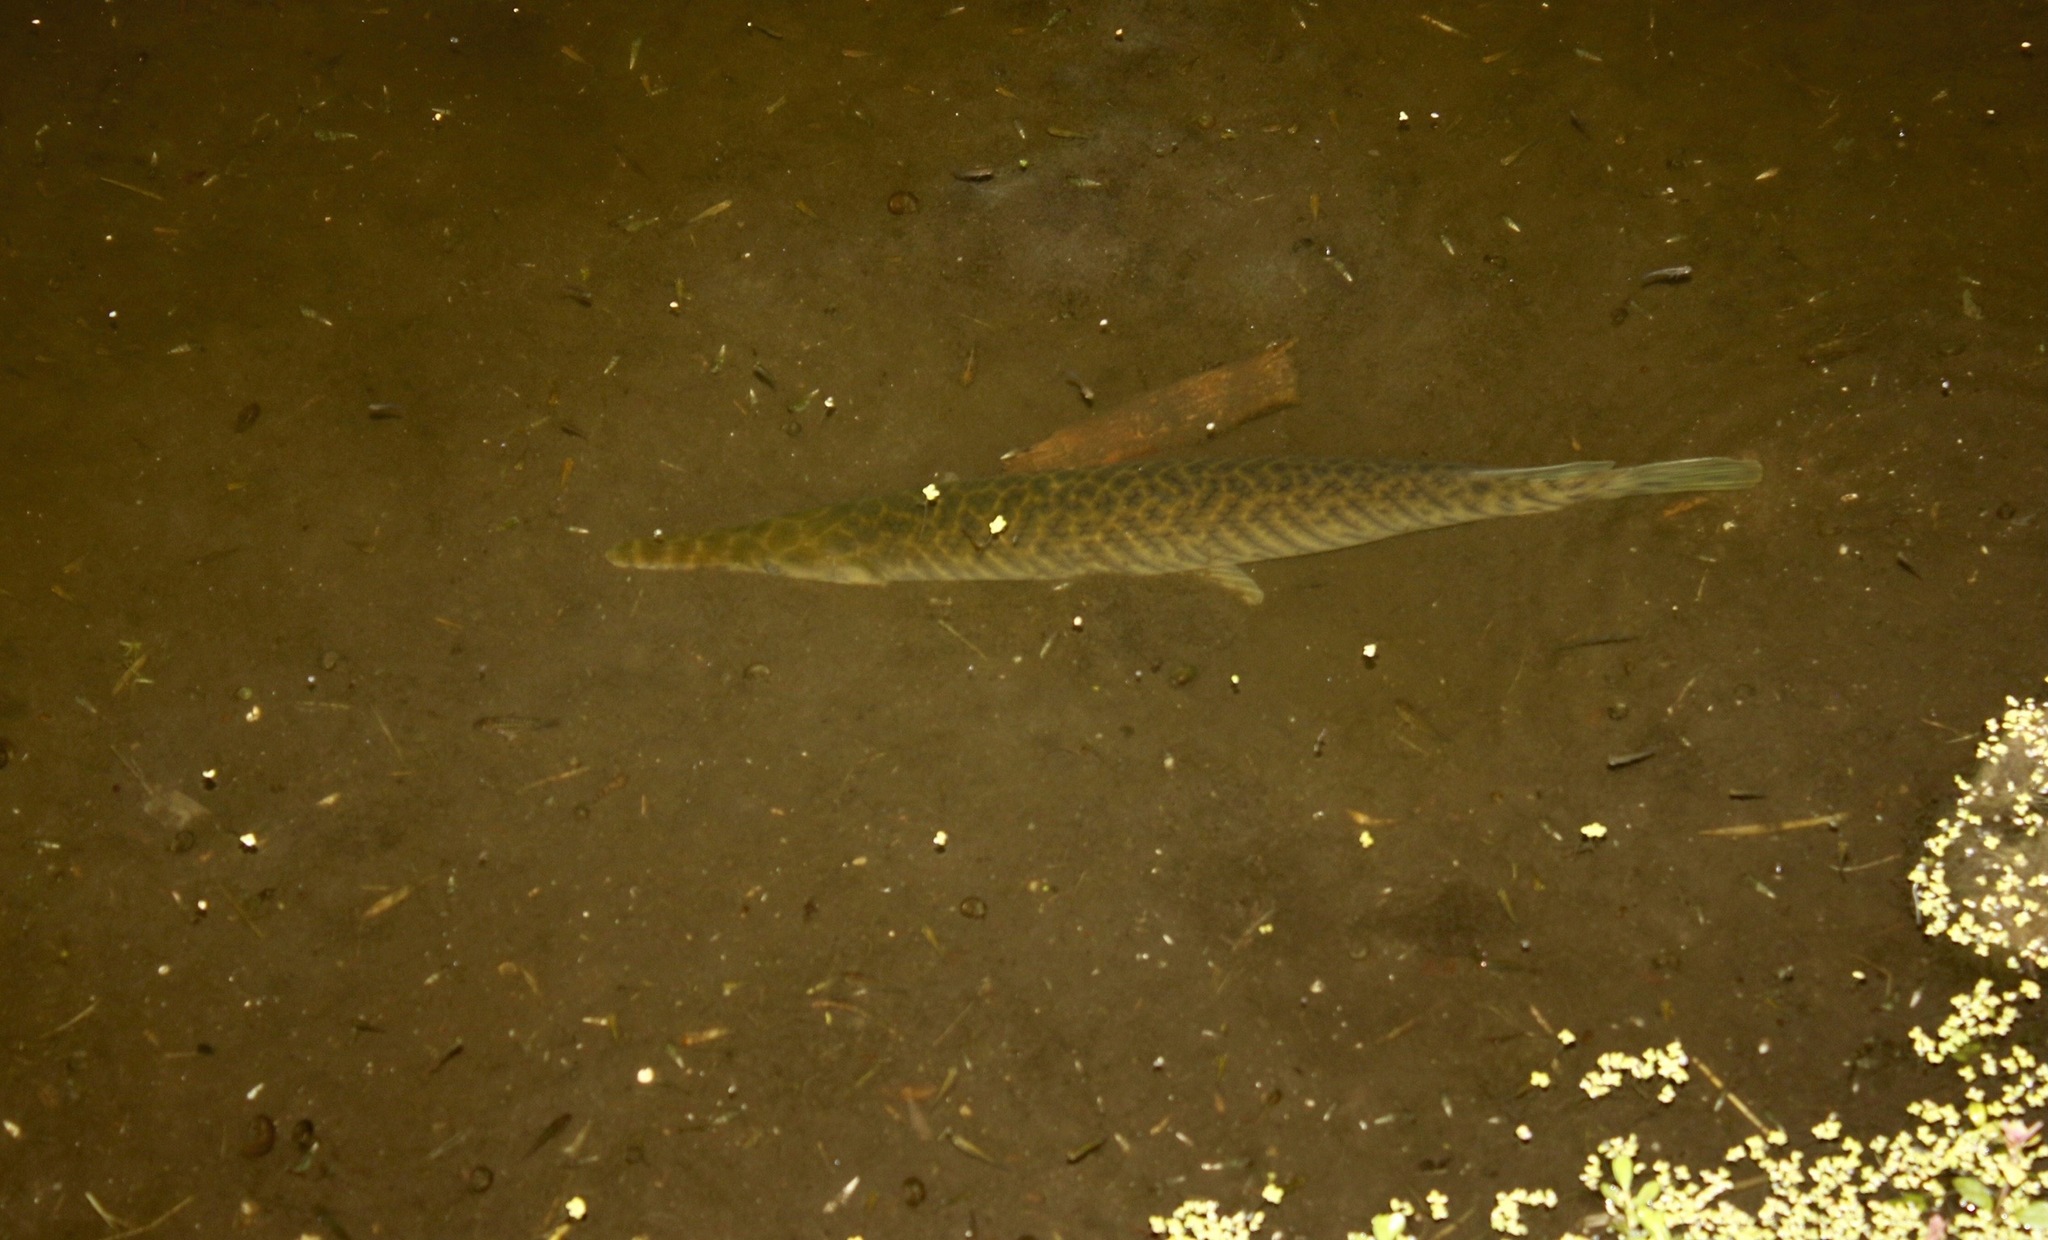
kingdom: Animalia
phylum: Chordata
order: Lepisosteiformes
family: Lepisosteidae
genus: Lepisosteus
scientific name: Lepisosteus platyrhincus
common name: Florida gar
